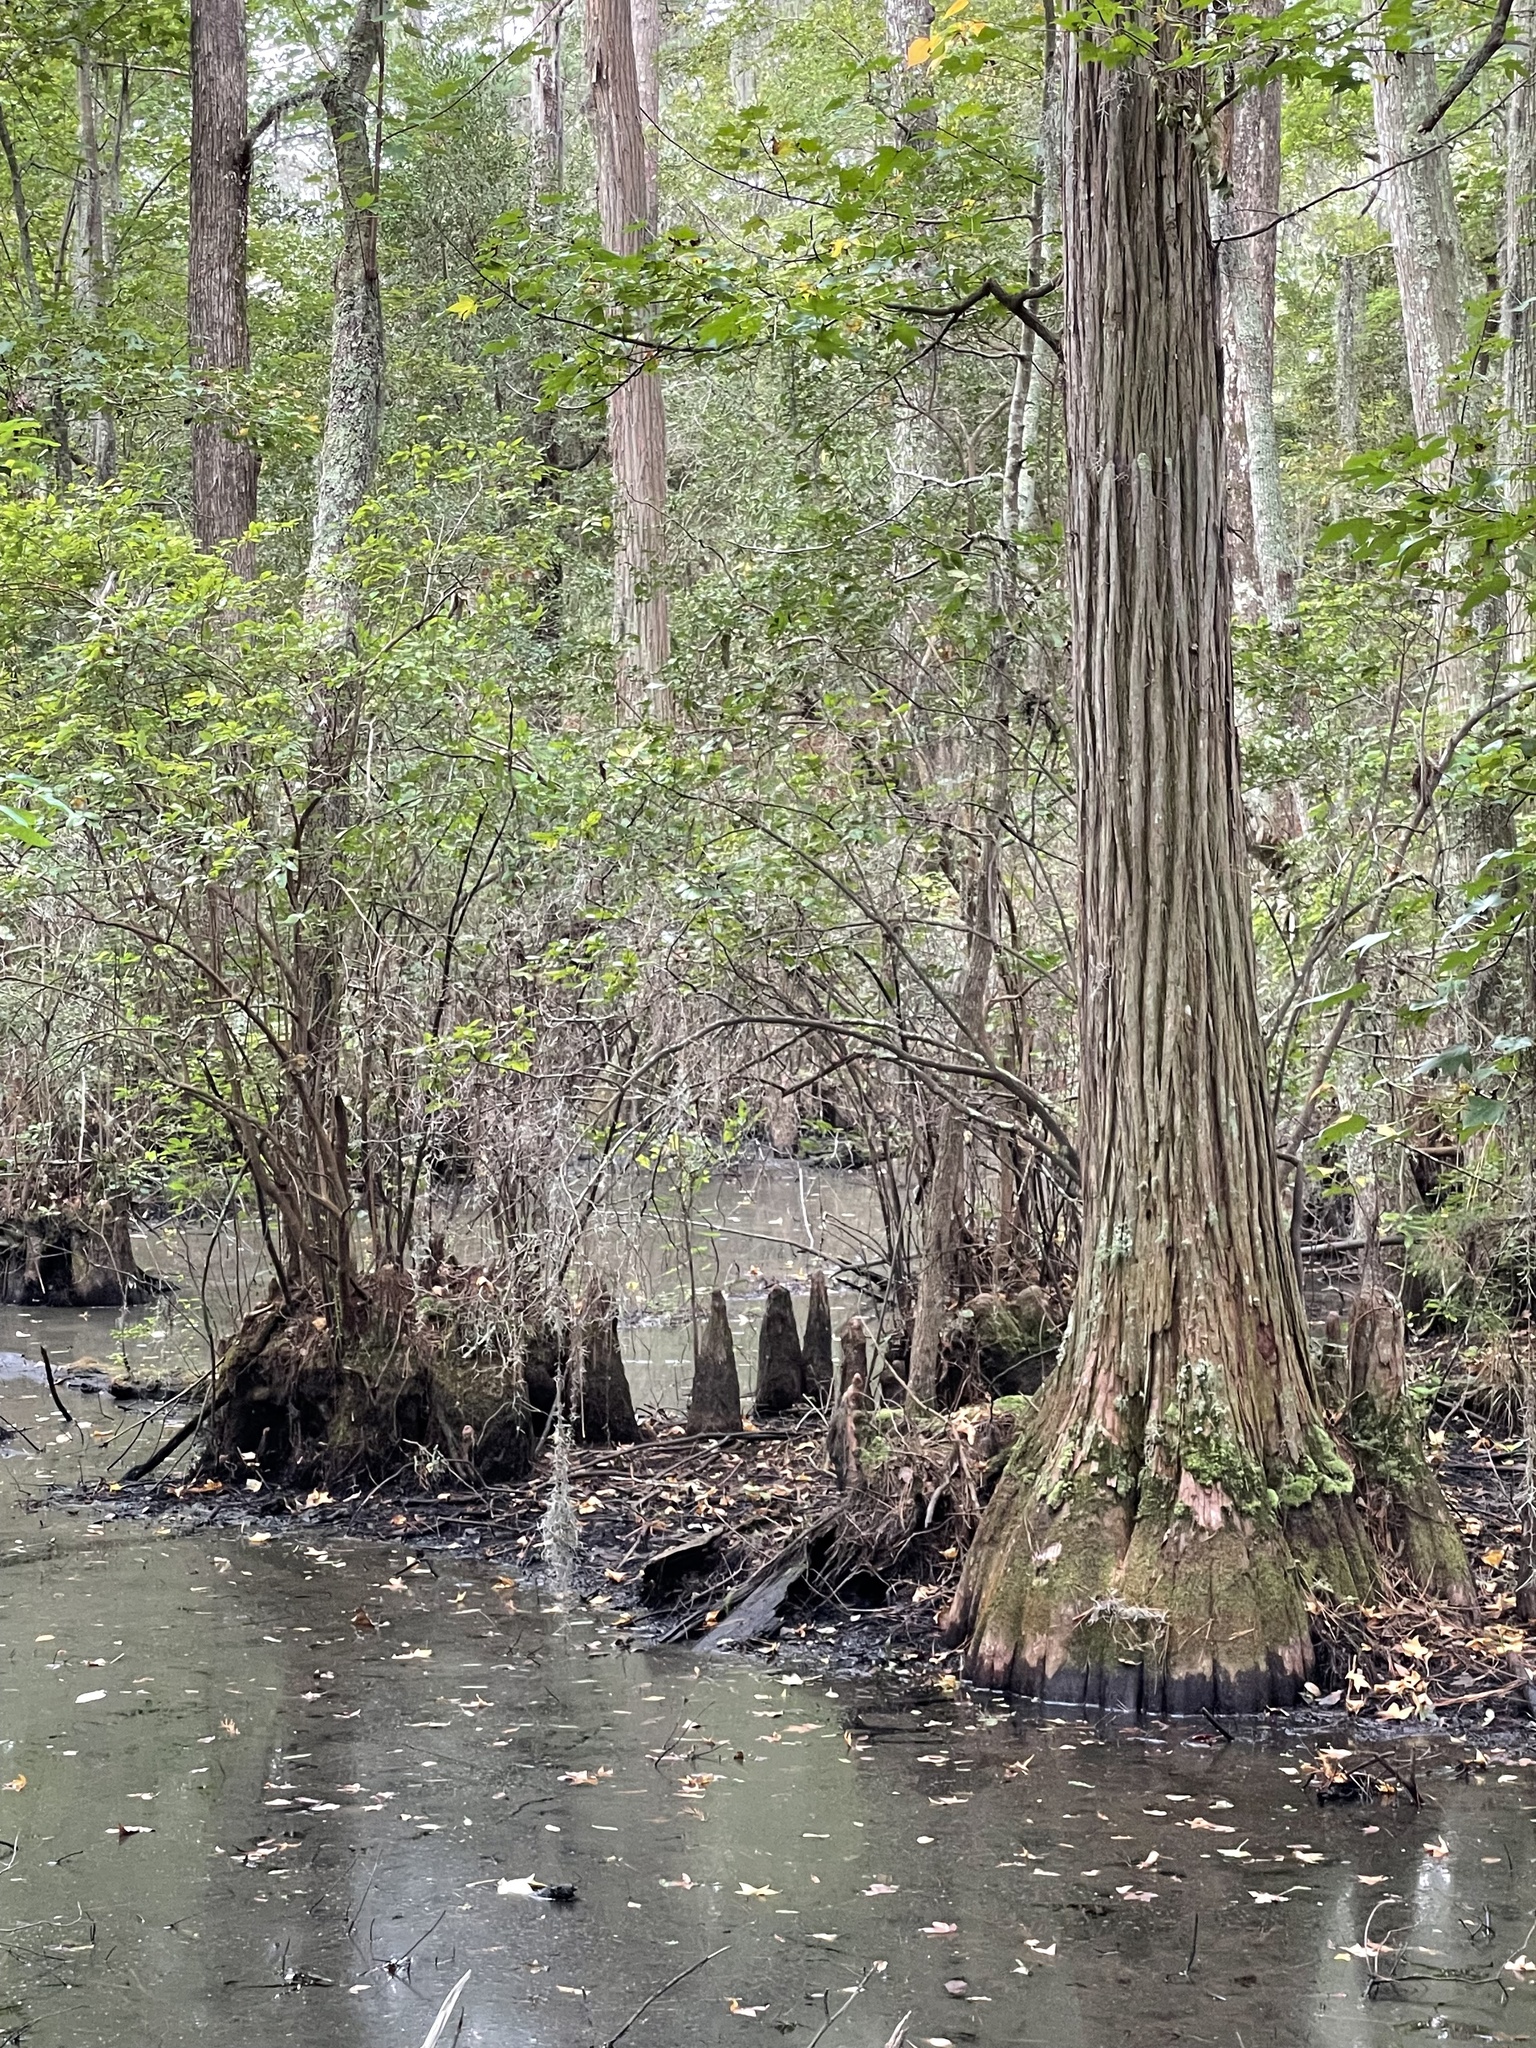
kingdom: Plantae
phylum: Tracheophyta
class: Pinopsida
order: Pinales
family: Cupressaceae
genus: Taxodium
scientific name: Taxodium distichum
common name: Bald cypress
